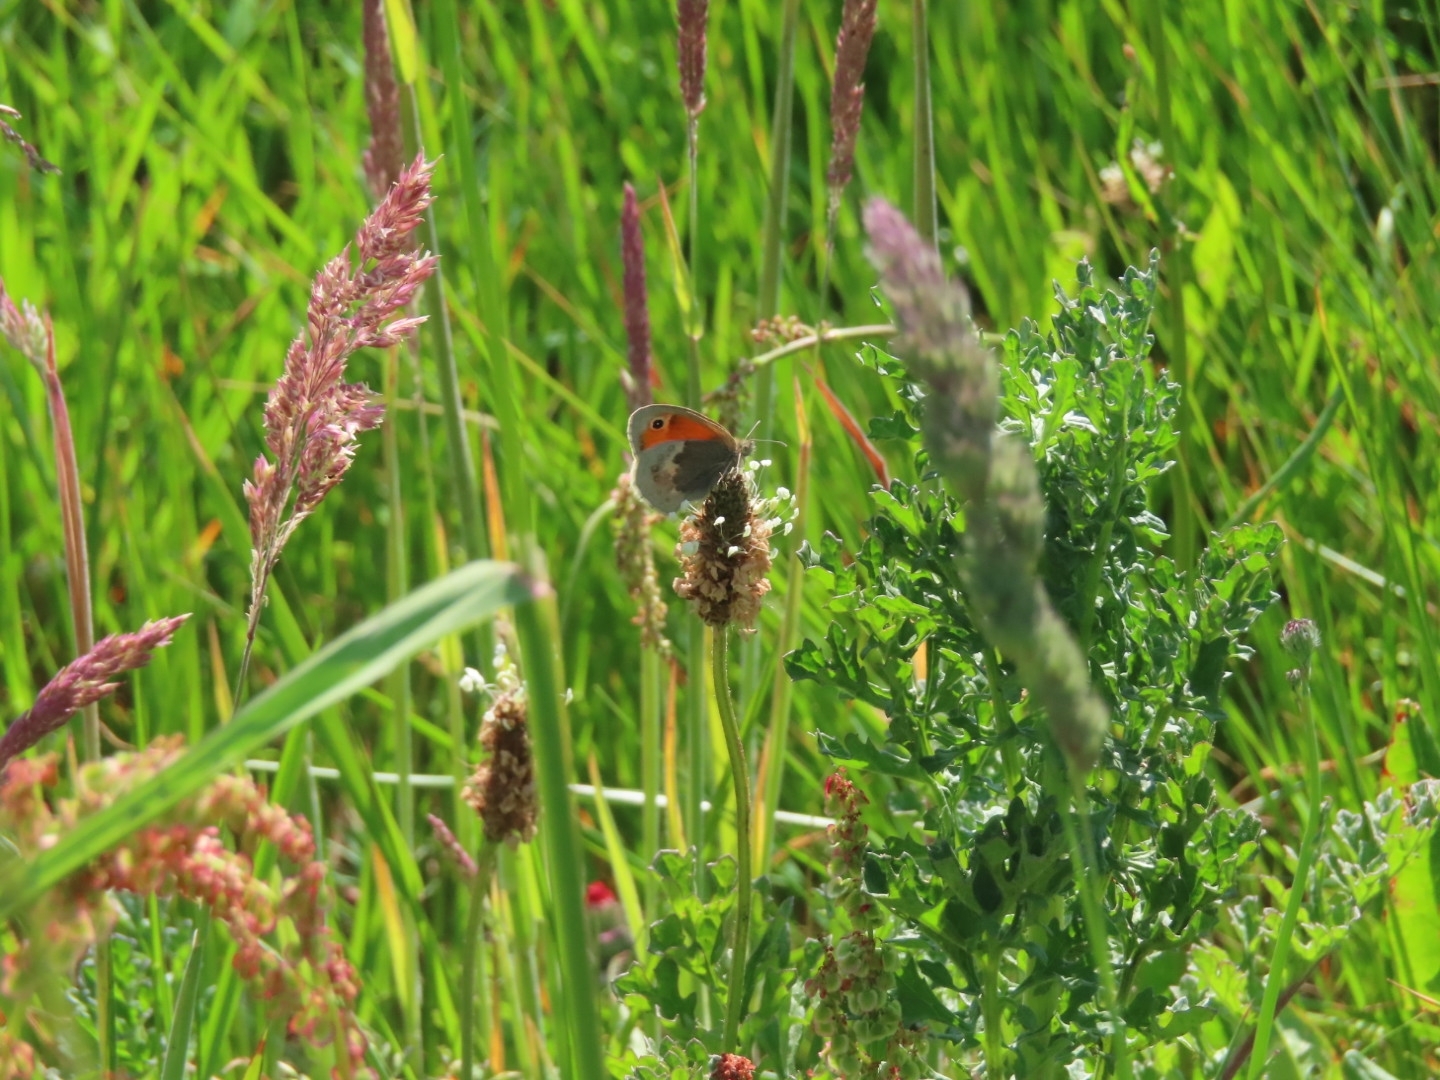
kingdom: Animalia
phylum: Arthropoda
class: Insecta
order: Lepidoptera
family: Nymphalidae
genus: Coenonympha
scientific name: Coenonympha pamphilus
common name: Small heath
